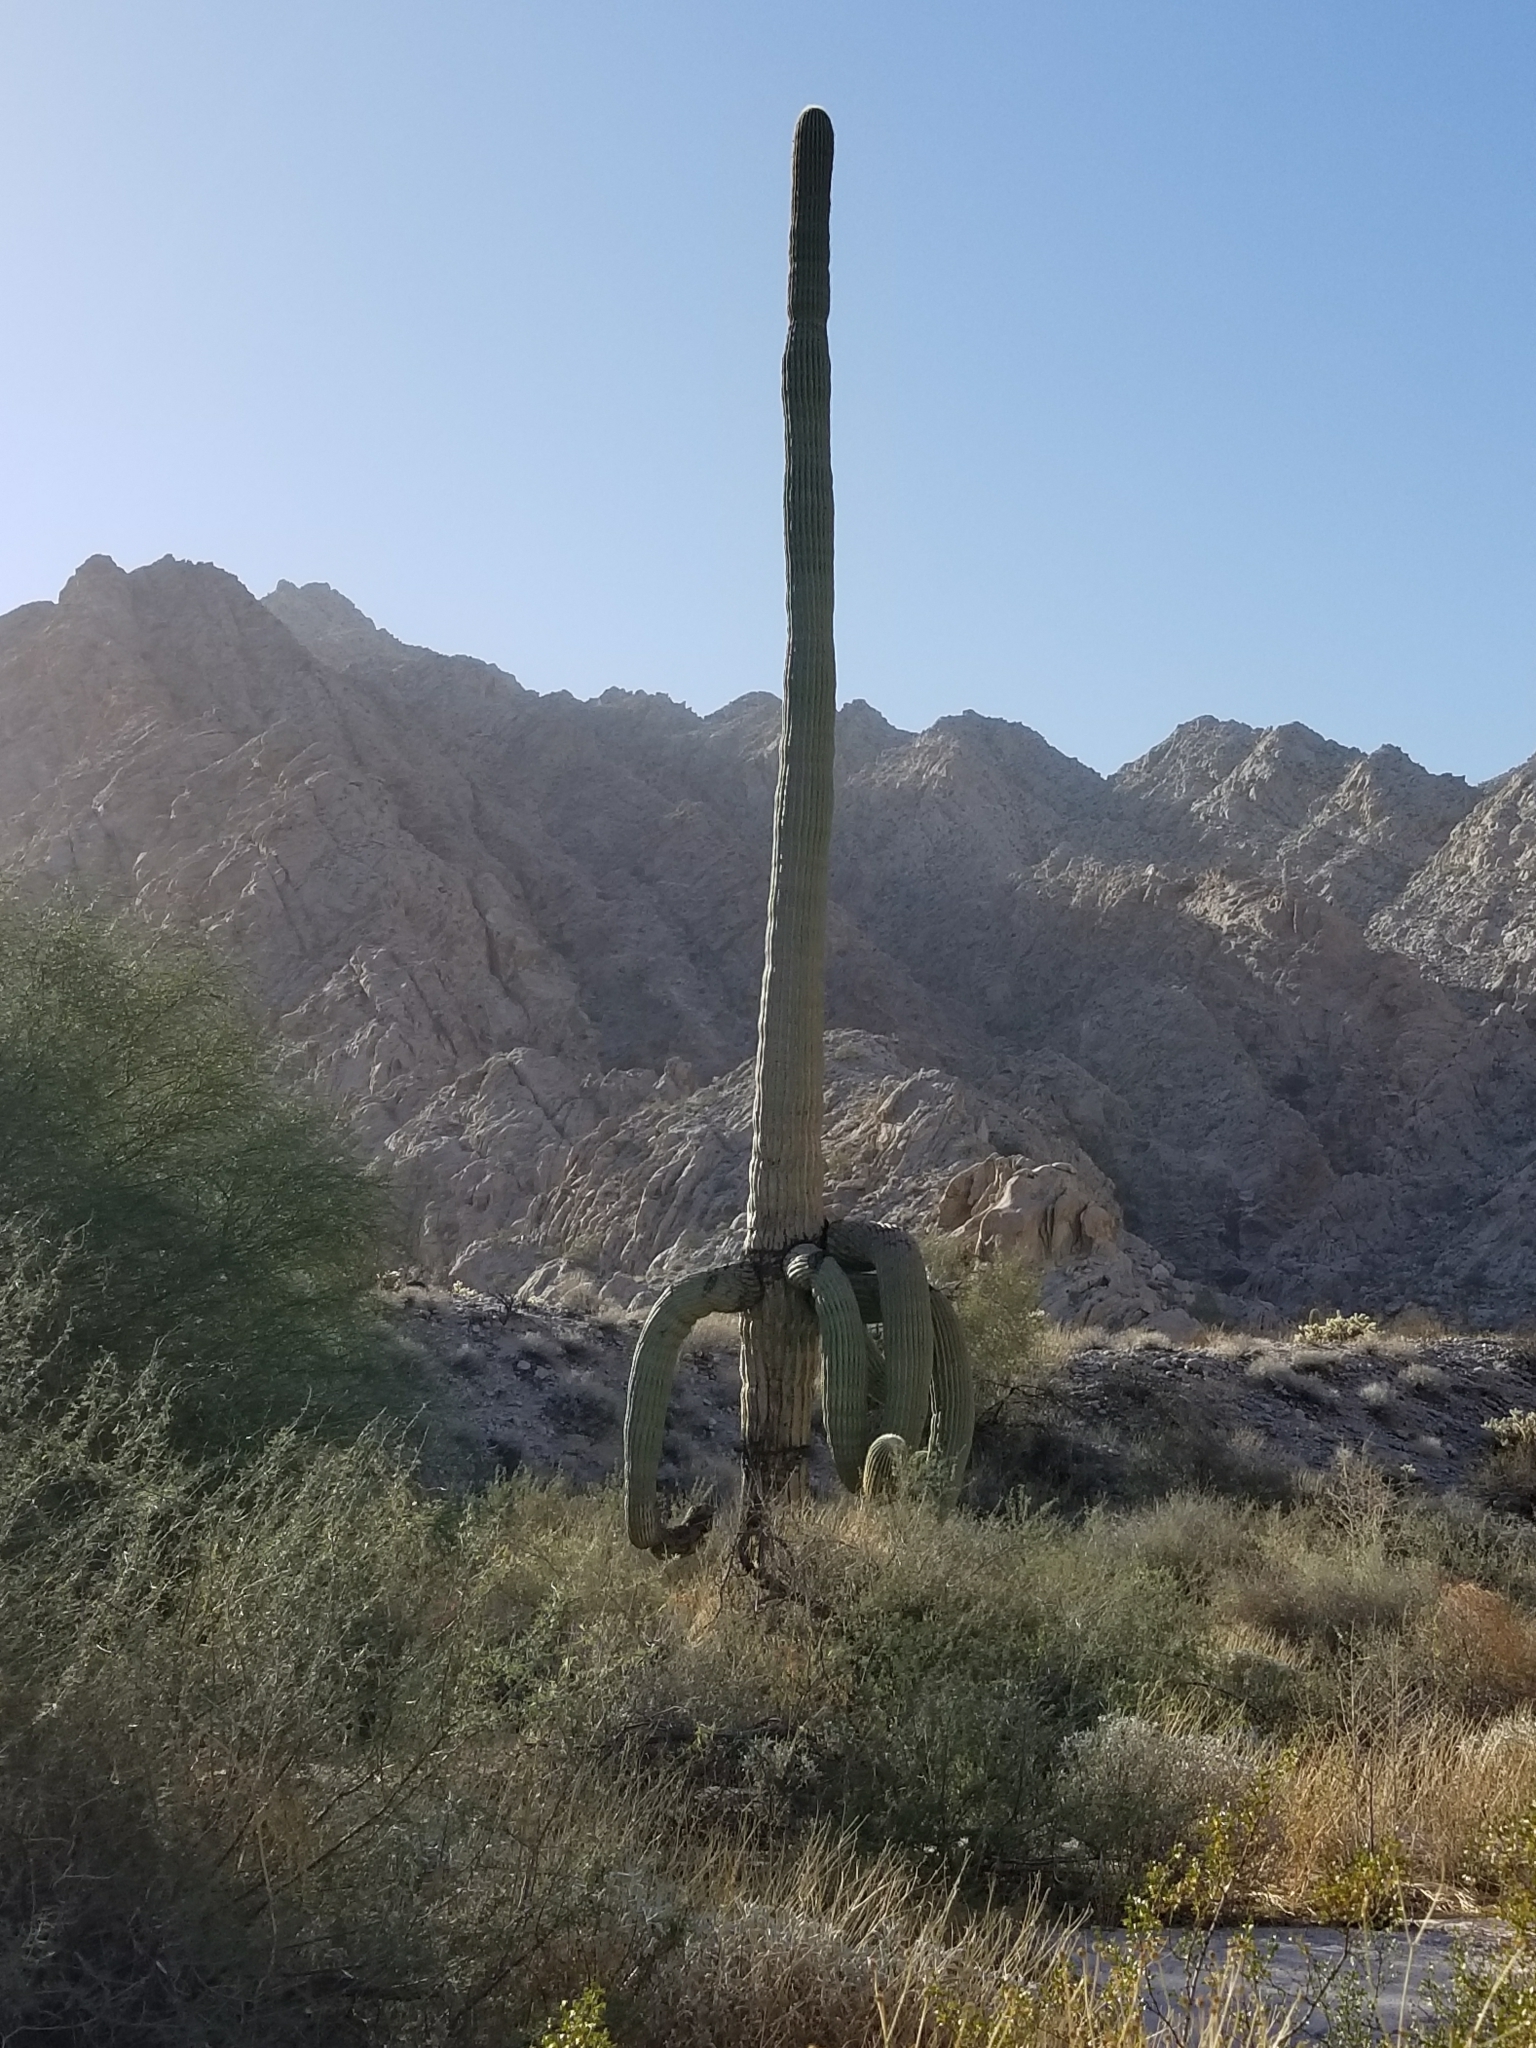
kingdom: Plantae
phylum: Tracheophyta
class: Magnoliopsida
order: Caryophyllales
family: Cactaceae
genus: Carnegiea
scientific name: Carnegiea gigantea
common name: Saguaro
